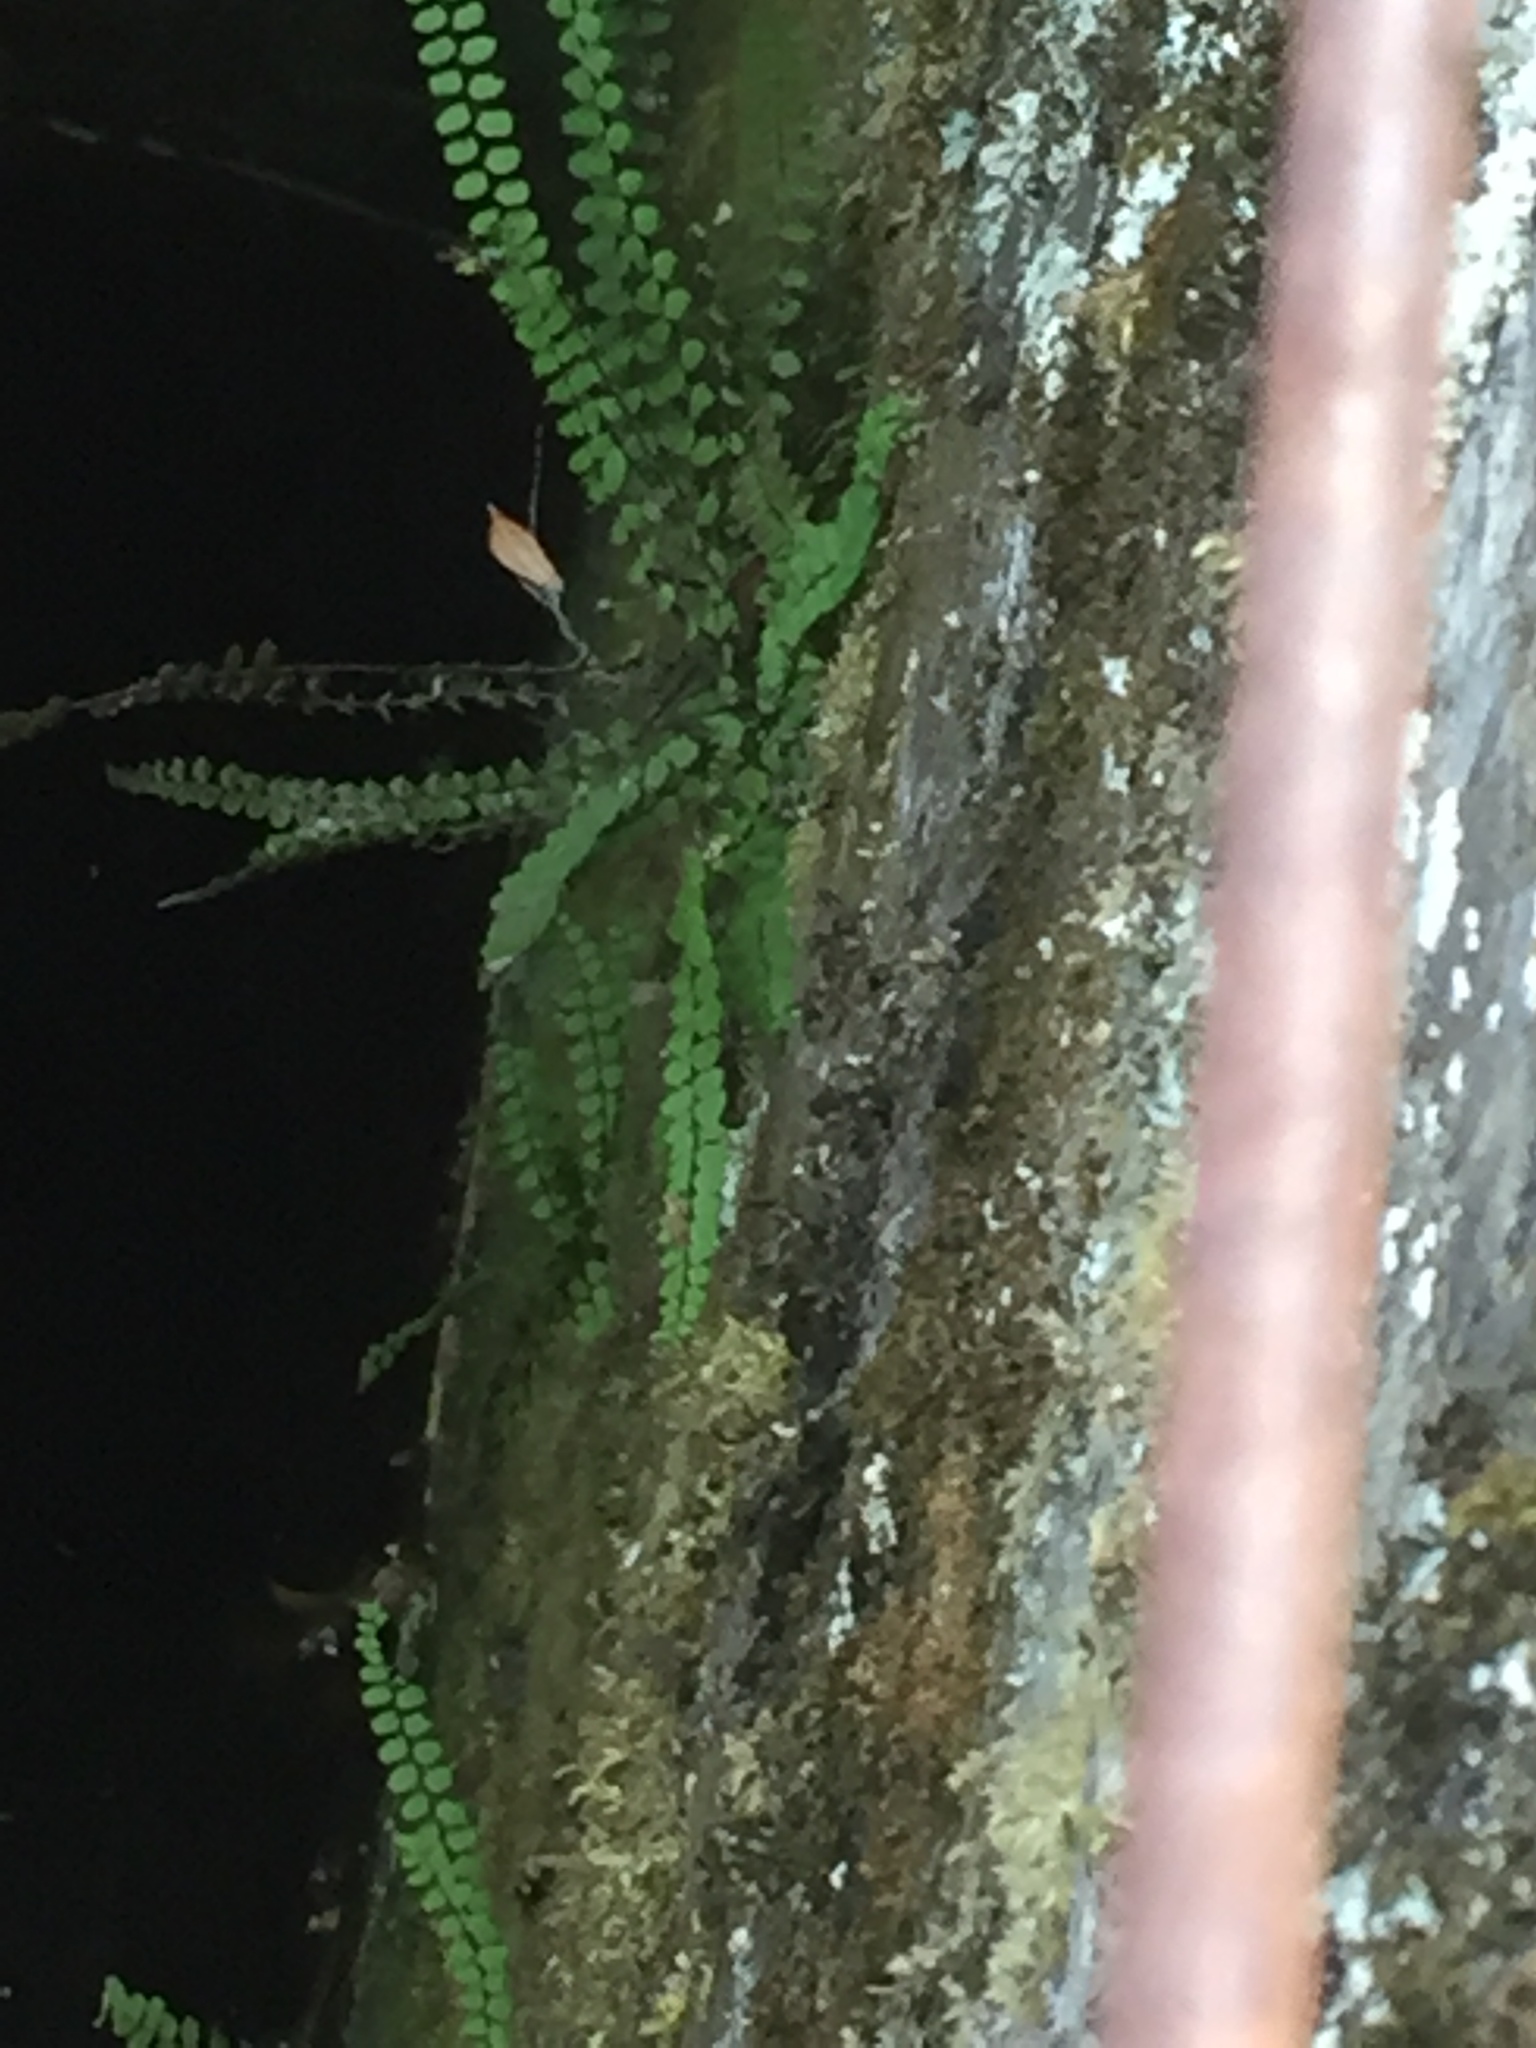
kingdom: Plantae
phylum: Tracheophyta
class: Polypodiopsida
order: Polypodiales
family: Aspleniaceae
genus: Asplenium
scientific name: Asplenium trichomanes
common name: Maidenhair spleenwort
